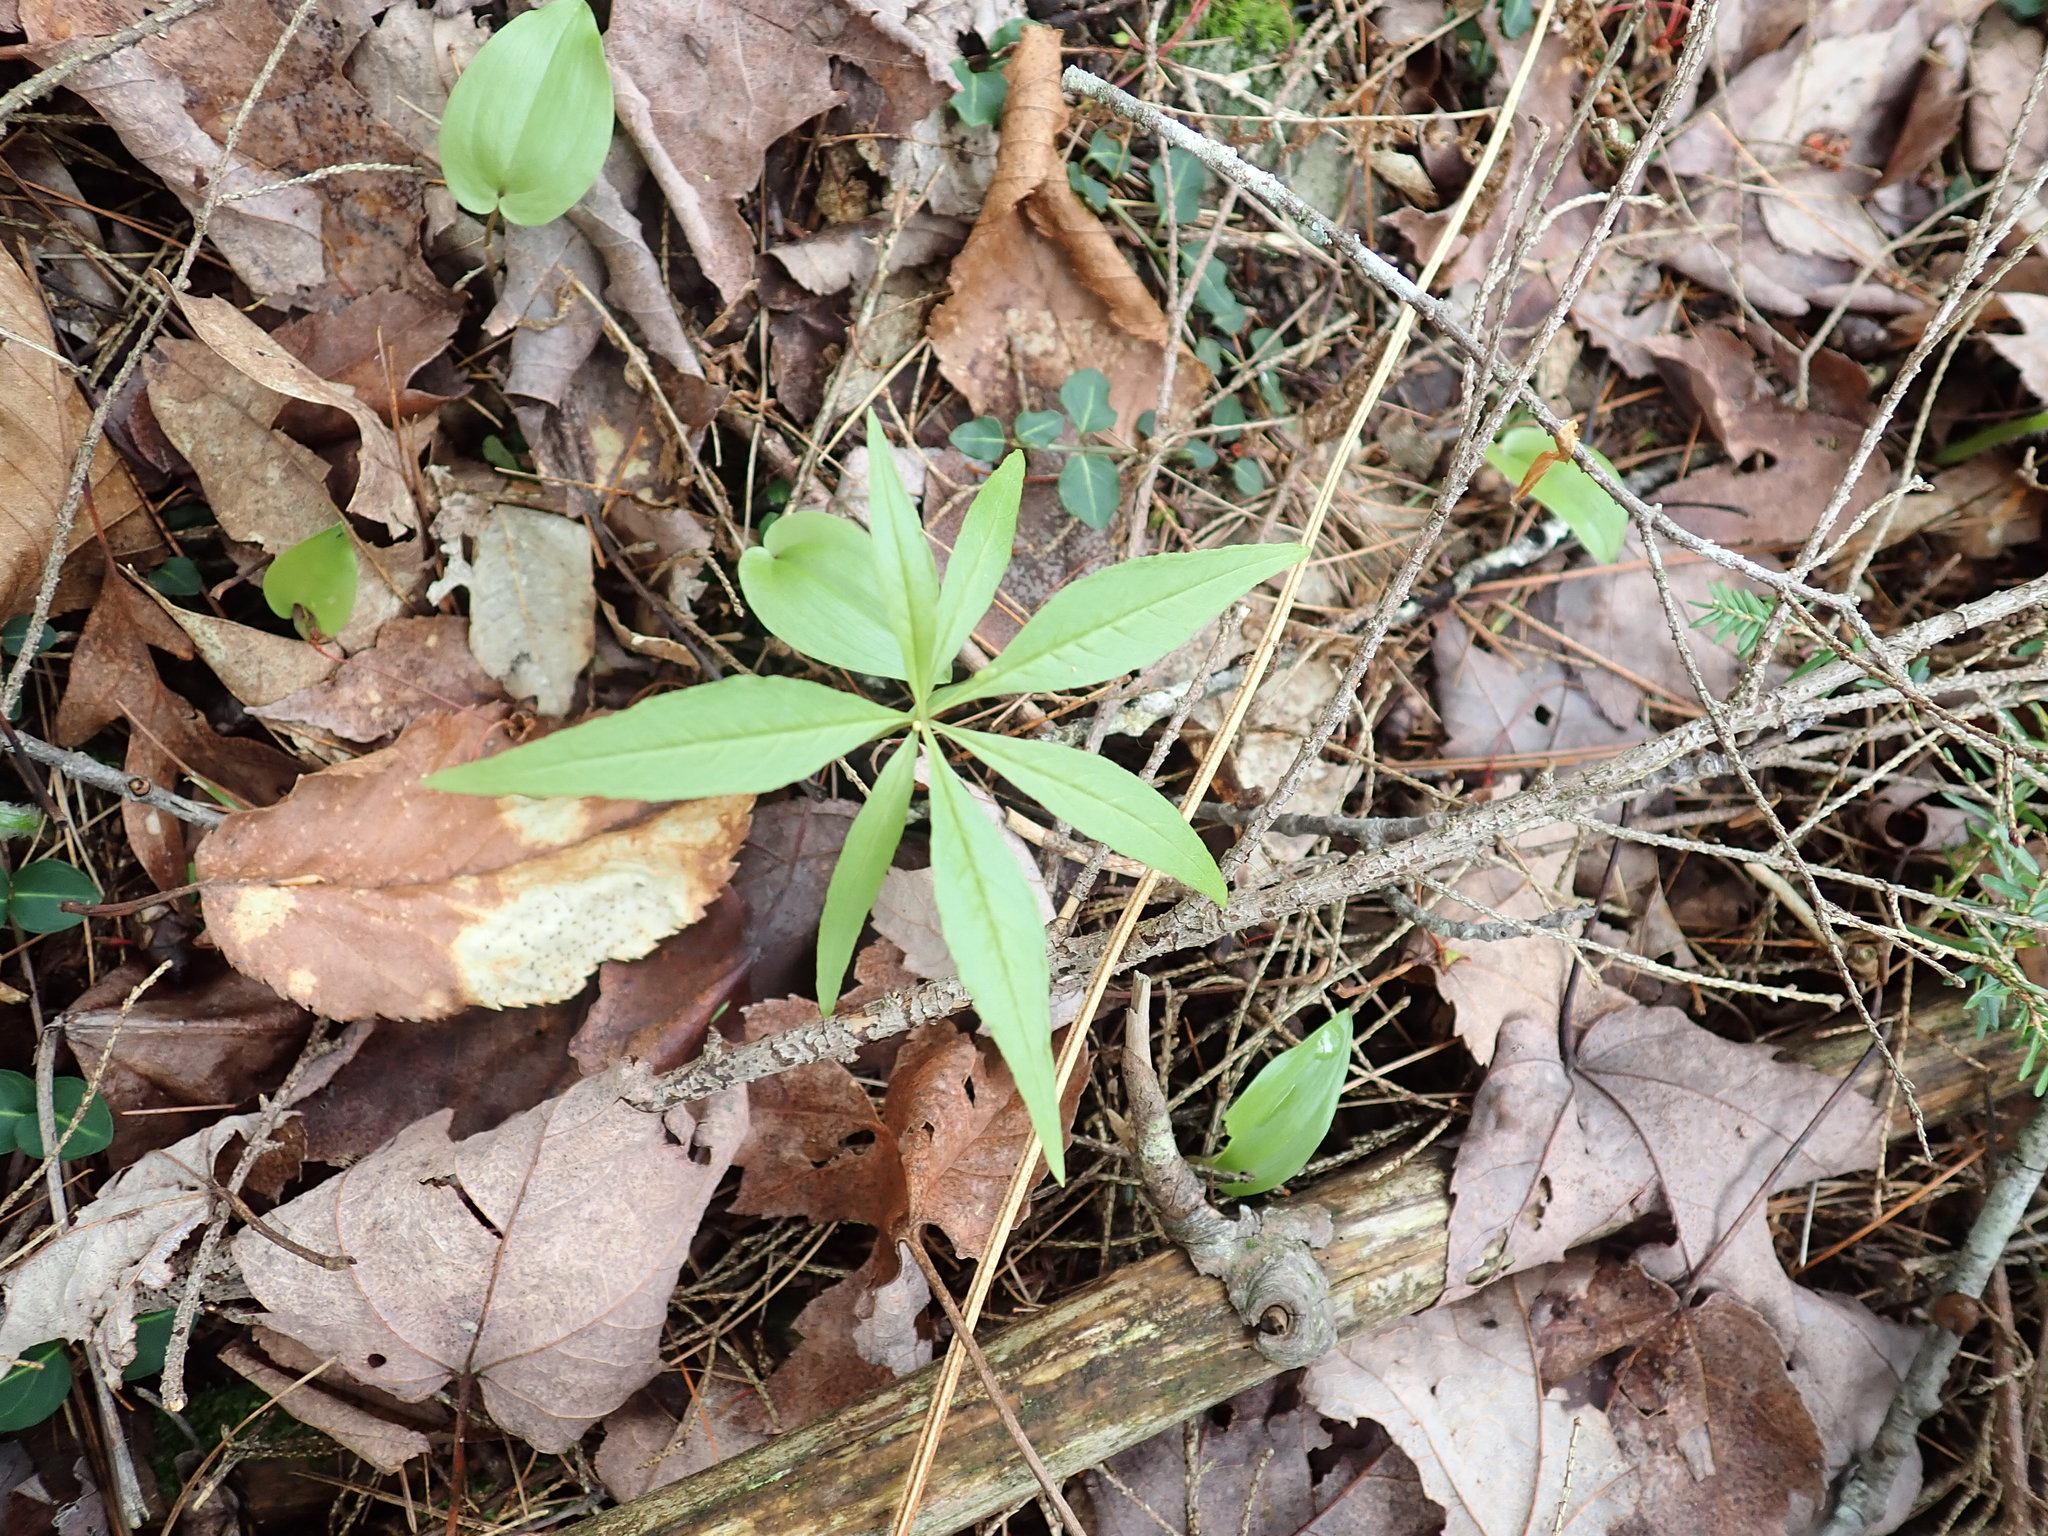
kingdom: Plantae
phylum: Tracheophyta
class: Magnoliopsida
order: Ericales
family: Primulaceae
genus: Lysimachia
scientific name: Lysimachia borealis
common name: American starflower
